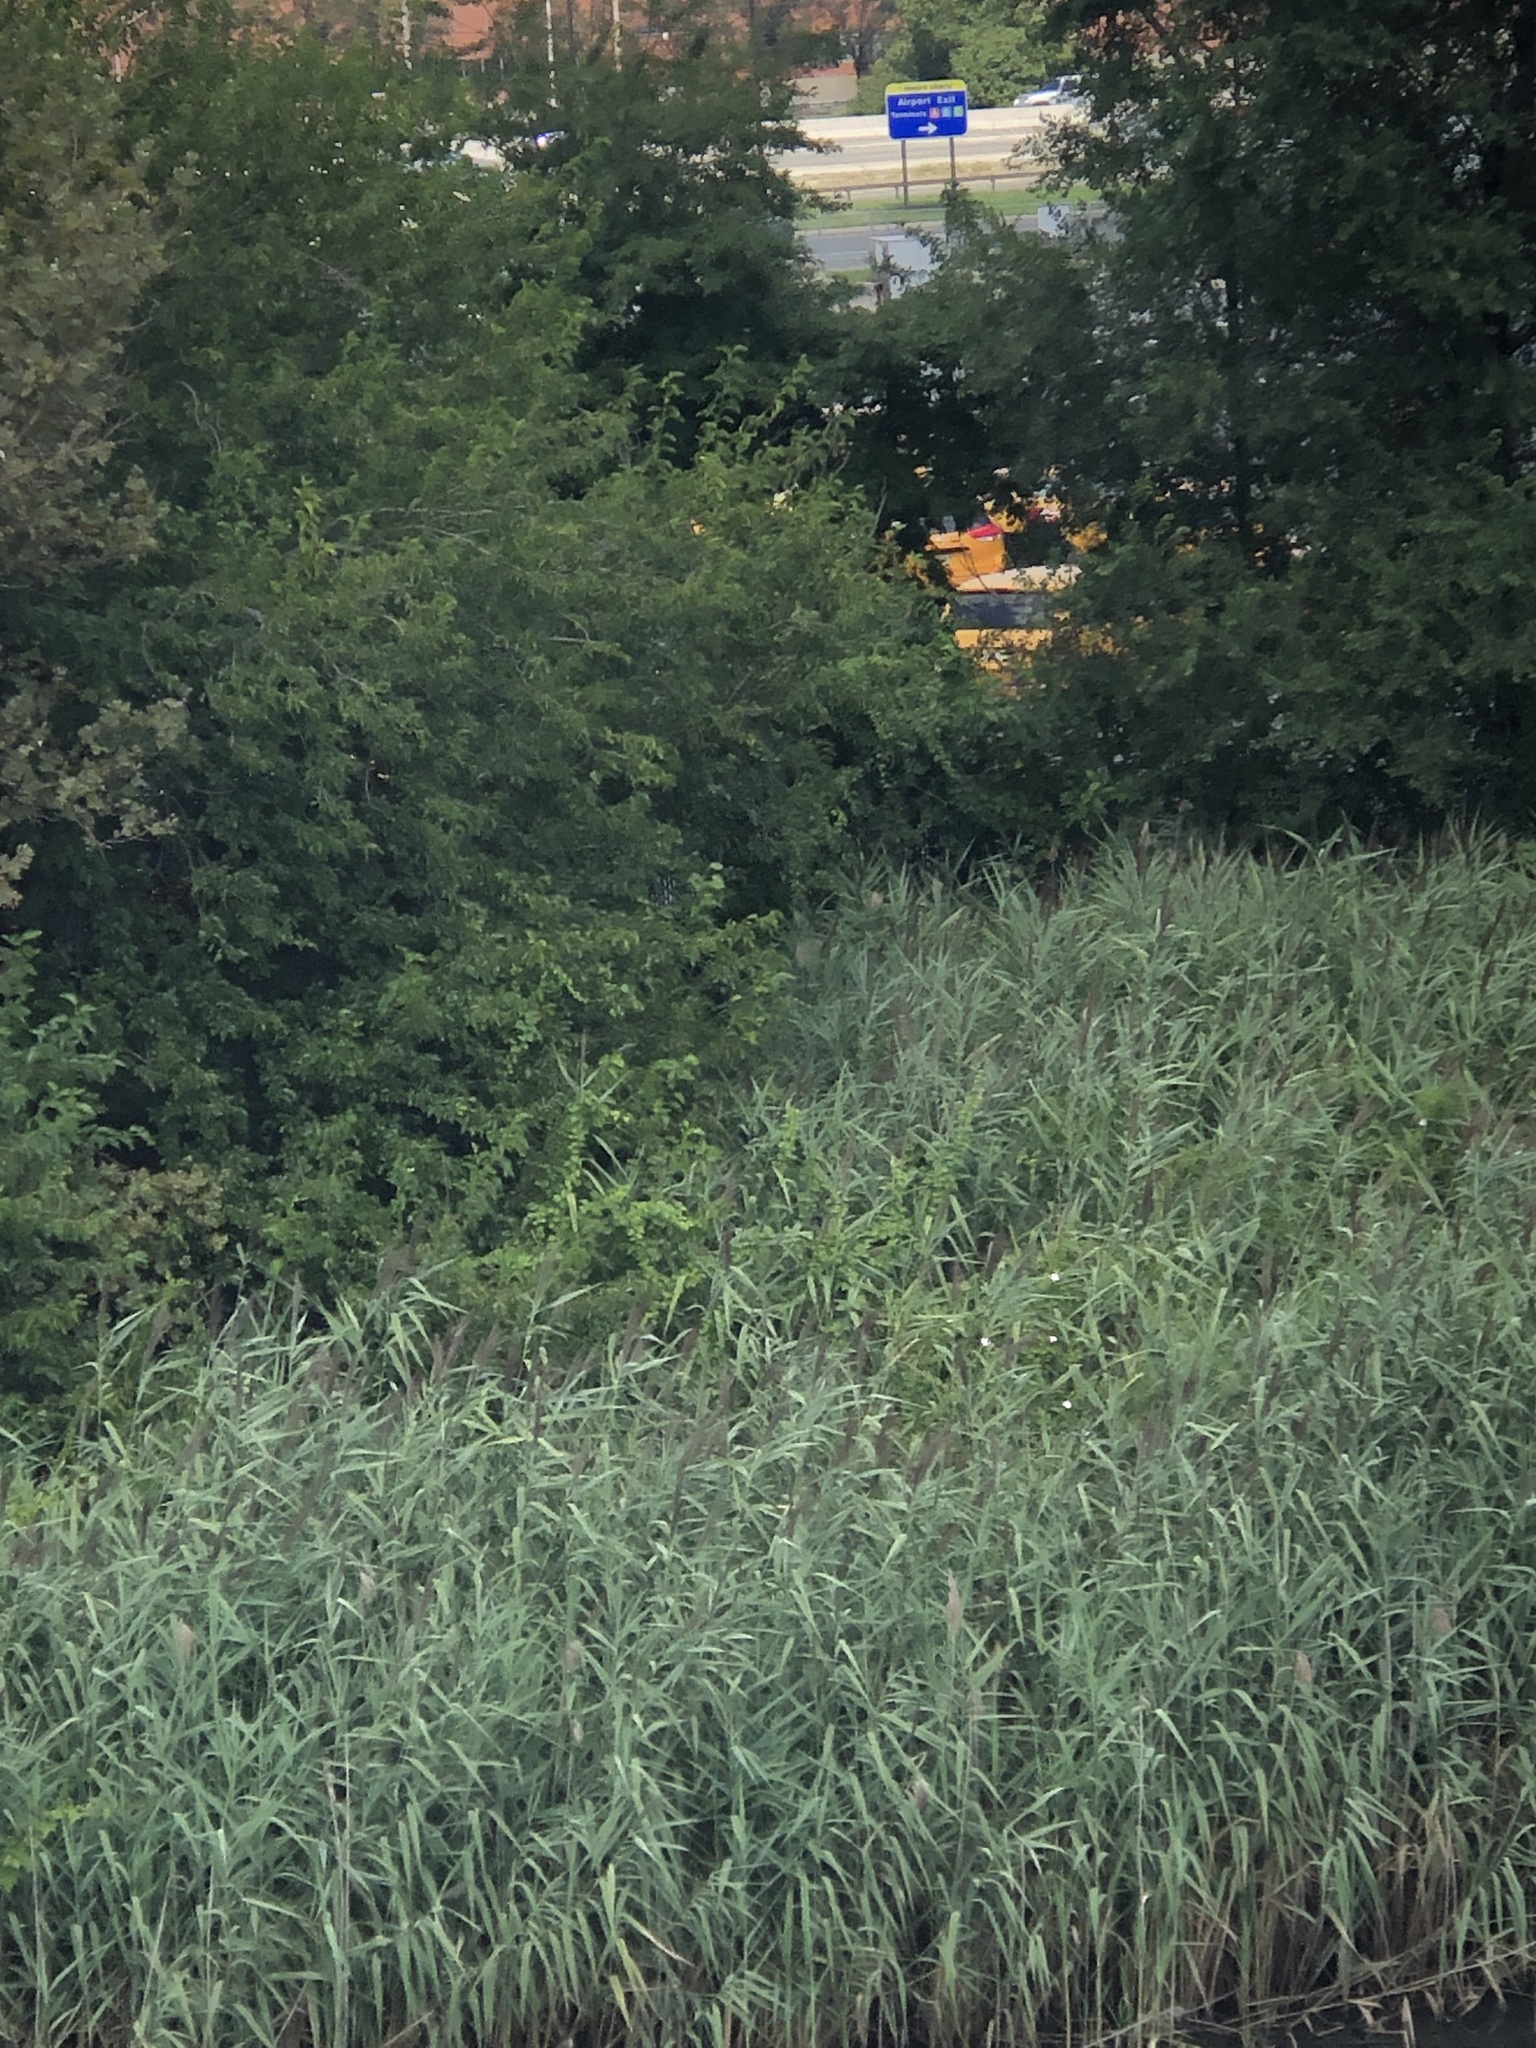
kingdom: Plantae
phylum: Tracheophyta
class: Liliopsida
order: Poales
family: Poaceae
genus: Phragmites
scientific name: Phragmites australis
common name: Common reed
